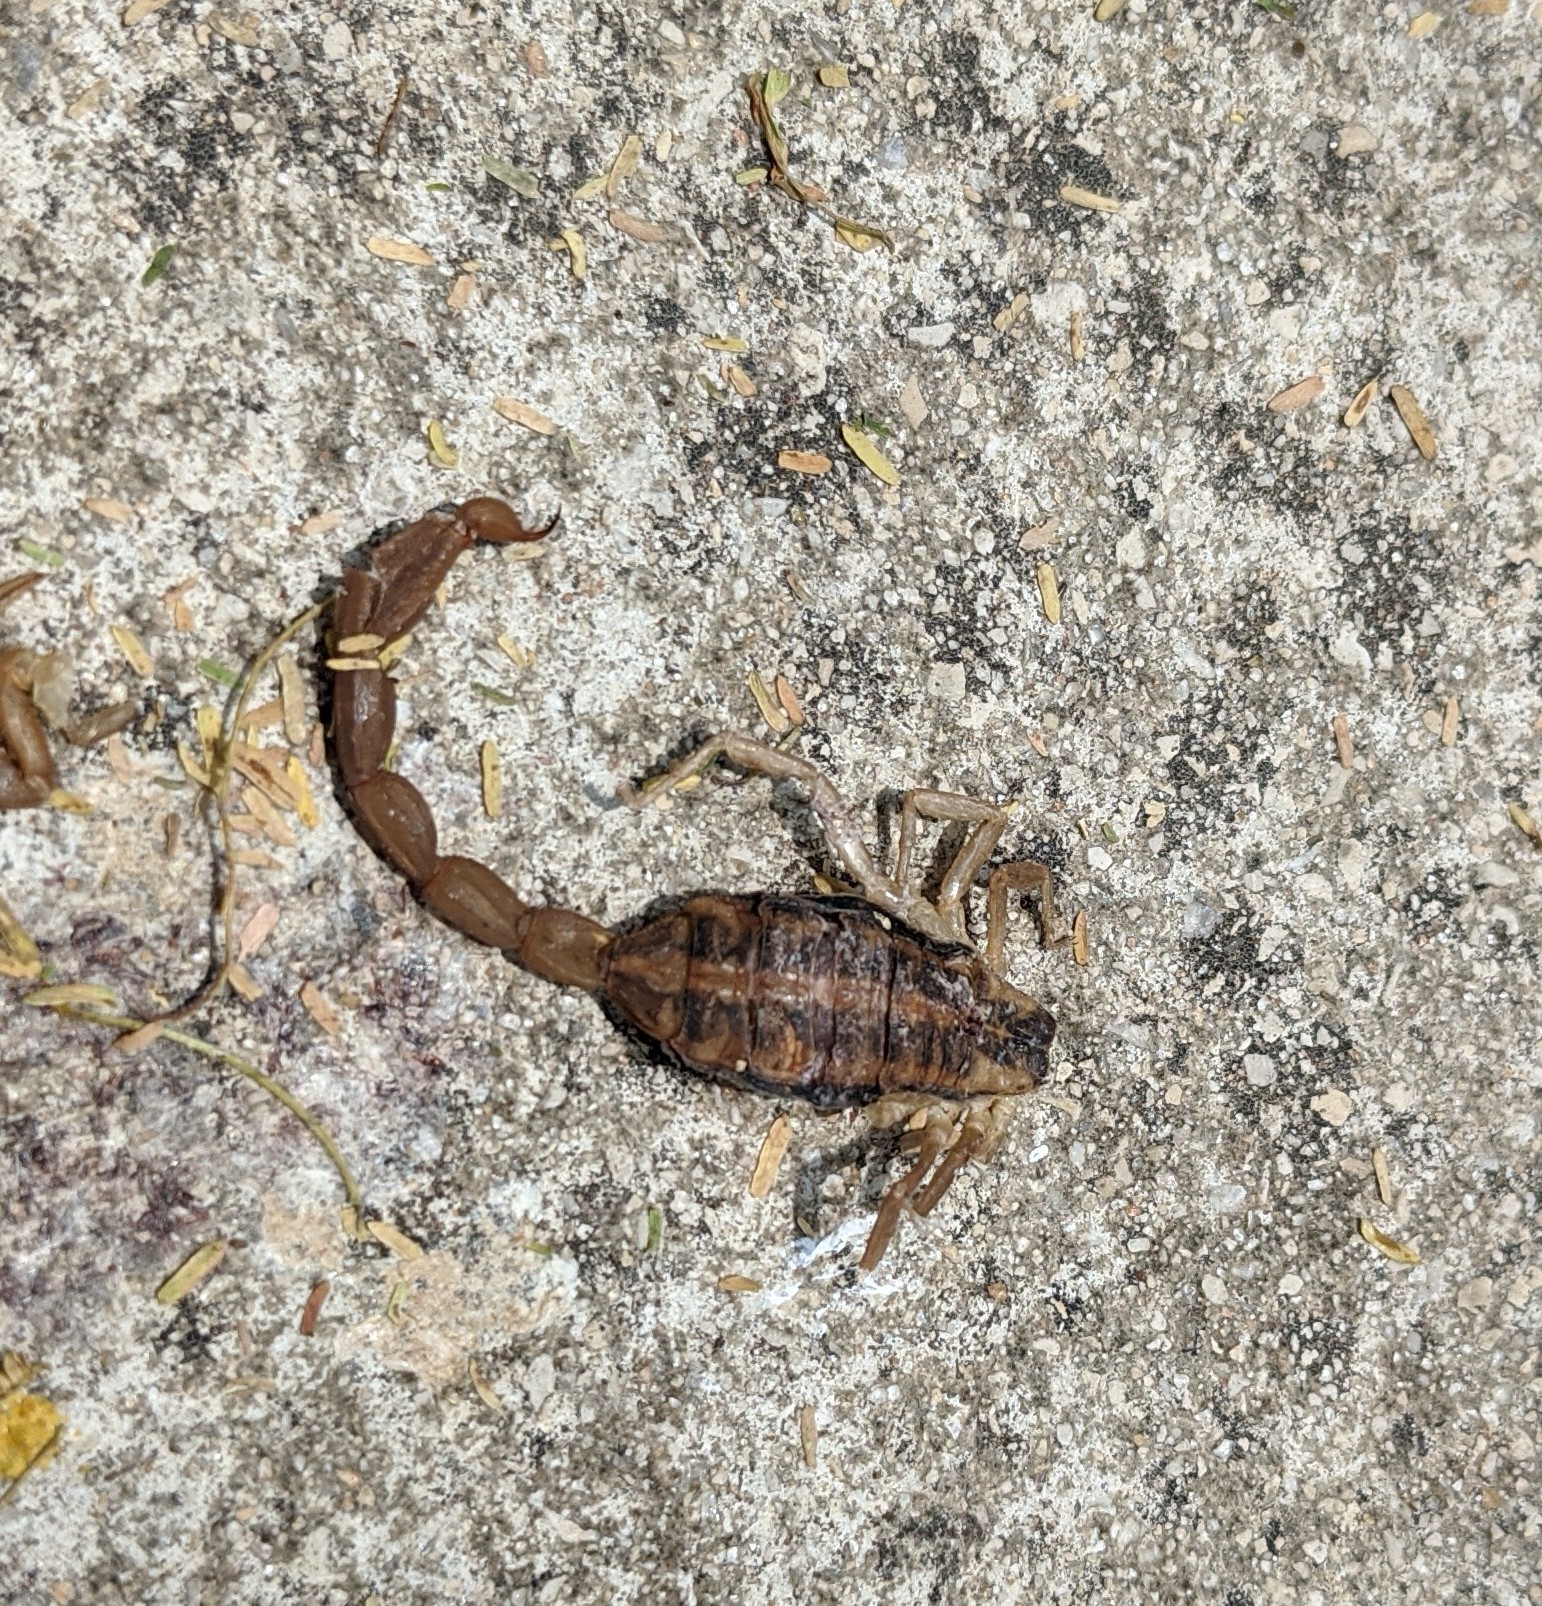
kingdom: Animalia
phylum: Arthropoda
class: Arachnida
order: Scorpiones
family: Buthidae
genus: Centruroides
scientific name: Centruroides vittatus
